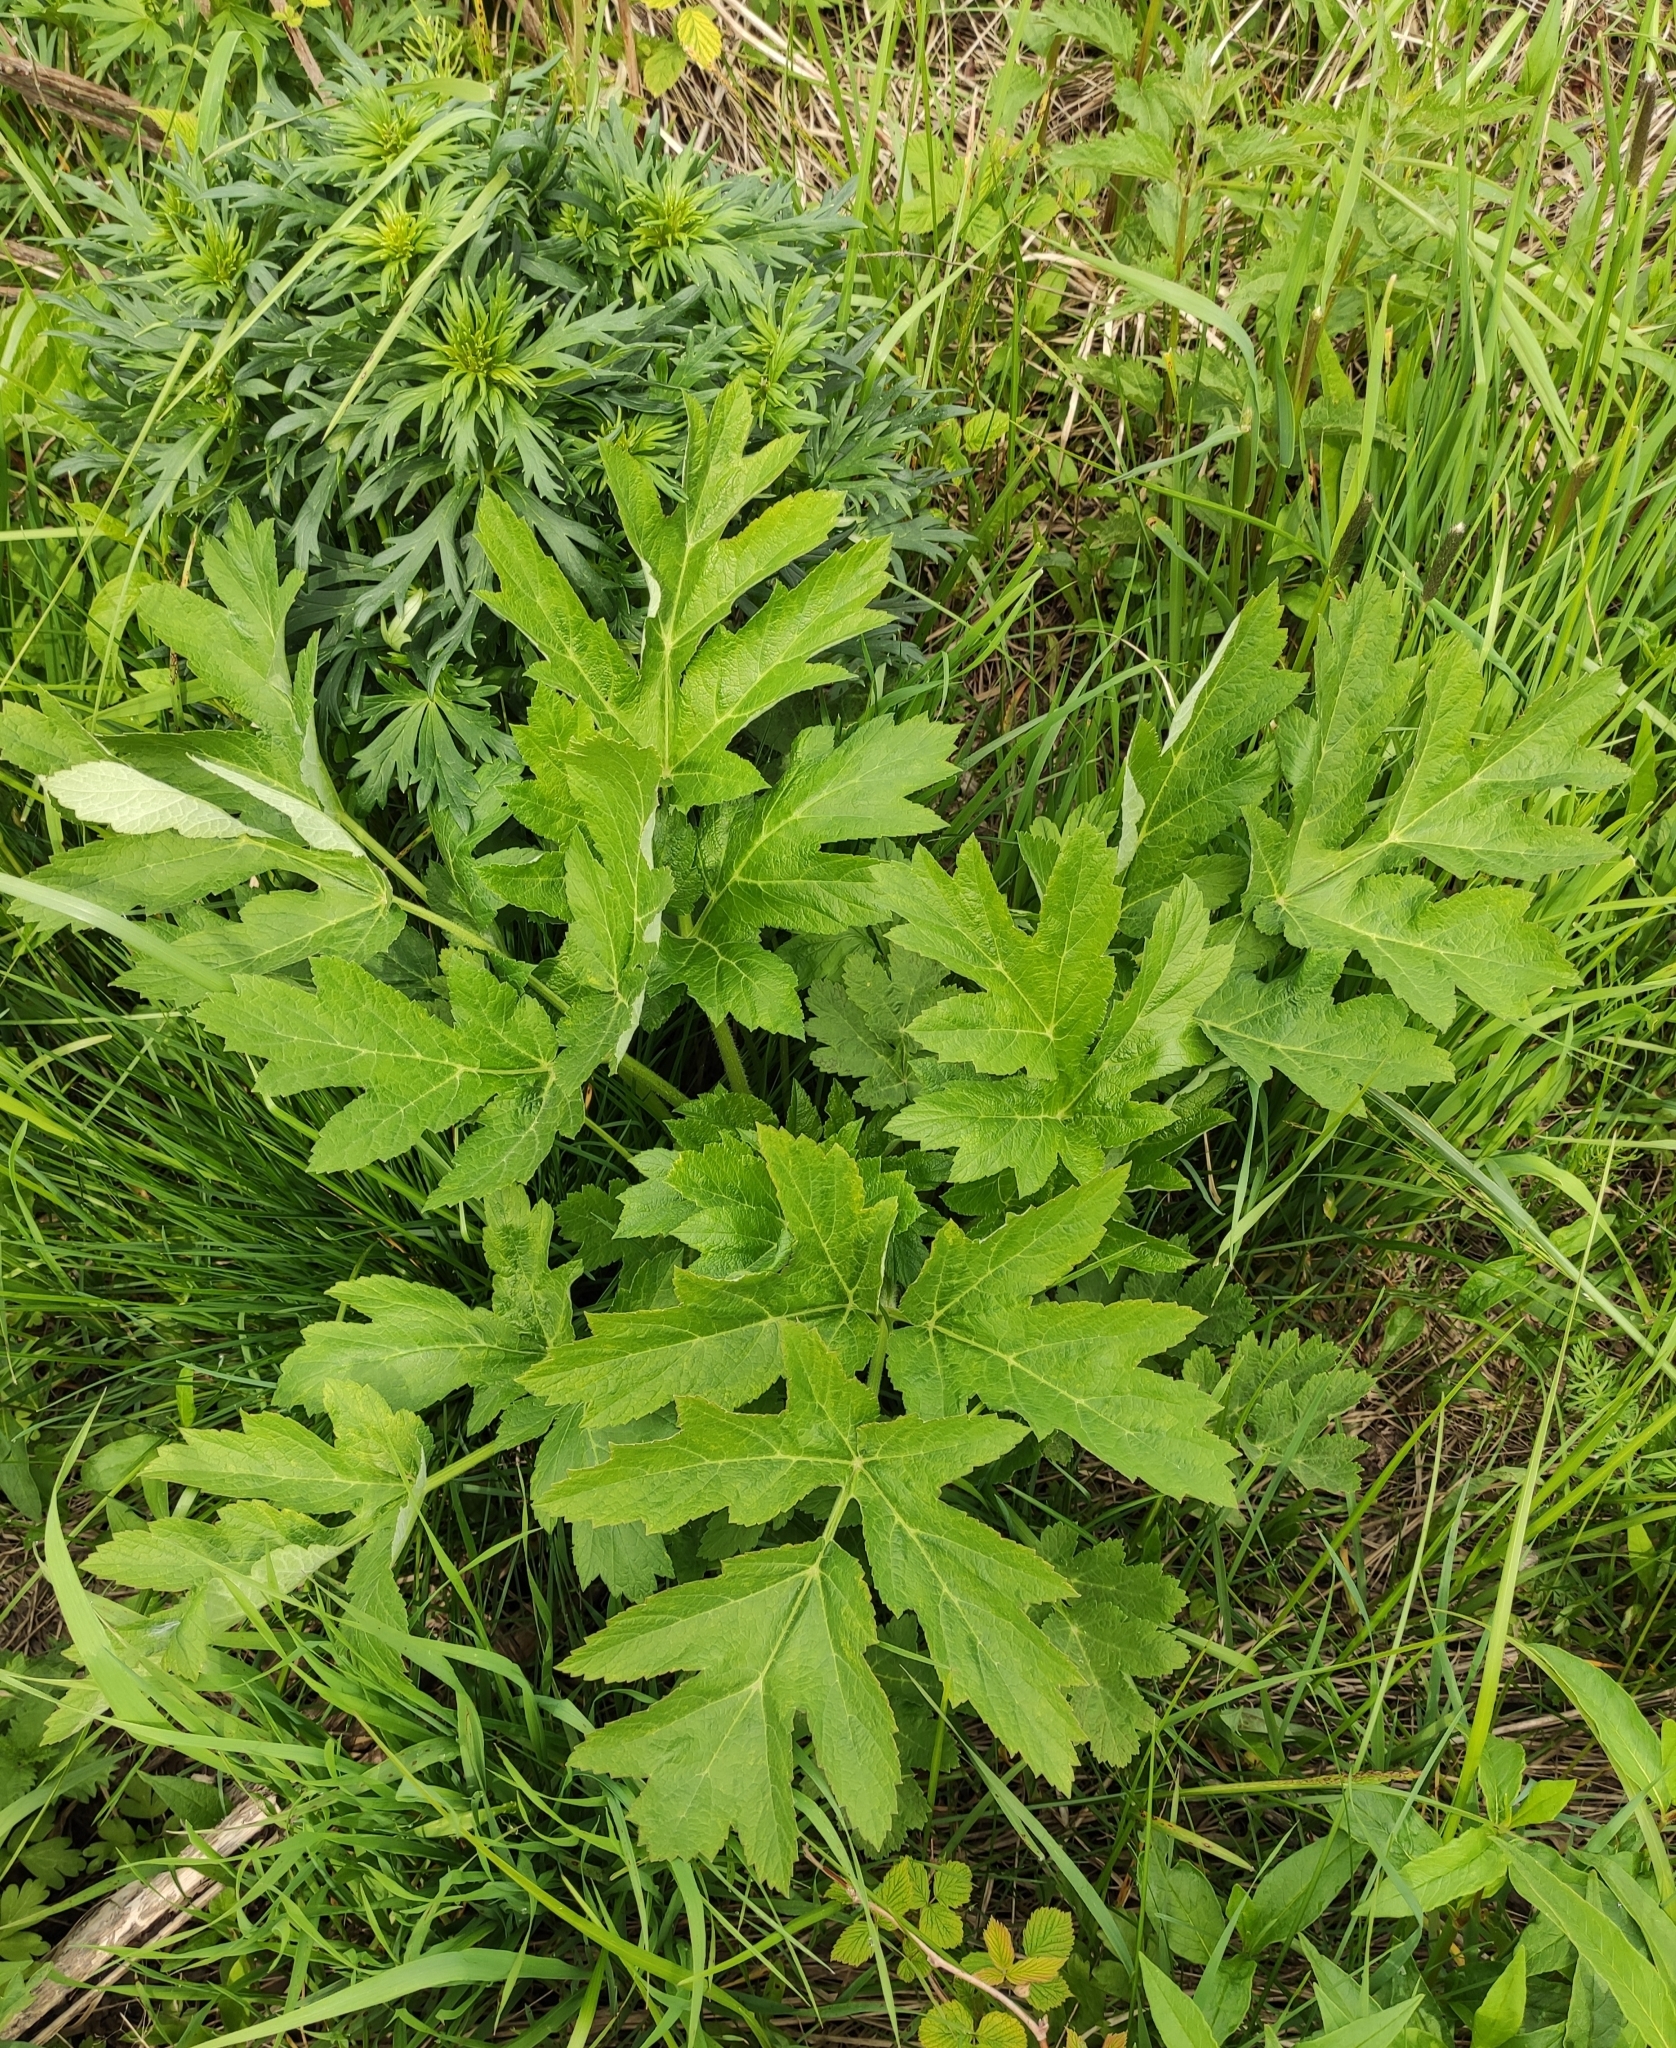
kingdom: Plantae
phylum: Tracheophyta
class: Magnoliopsida
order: Apiales
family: Apiaceae
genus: Heracleum
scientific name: Heracleum dissectum
